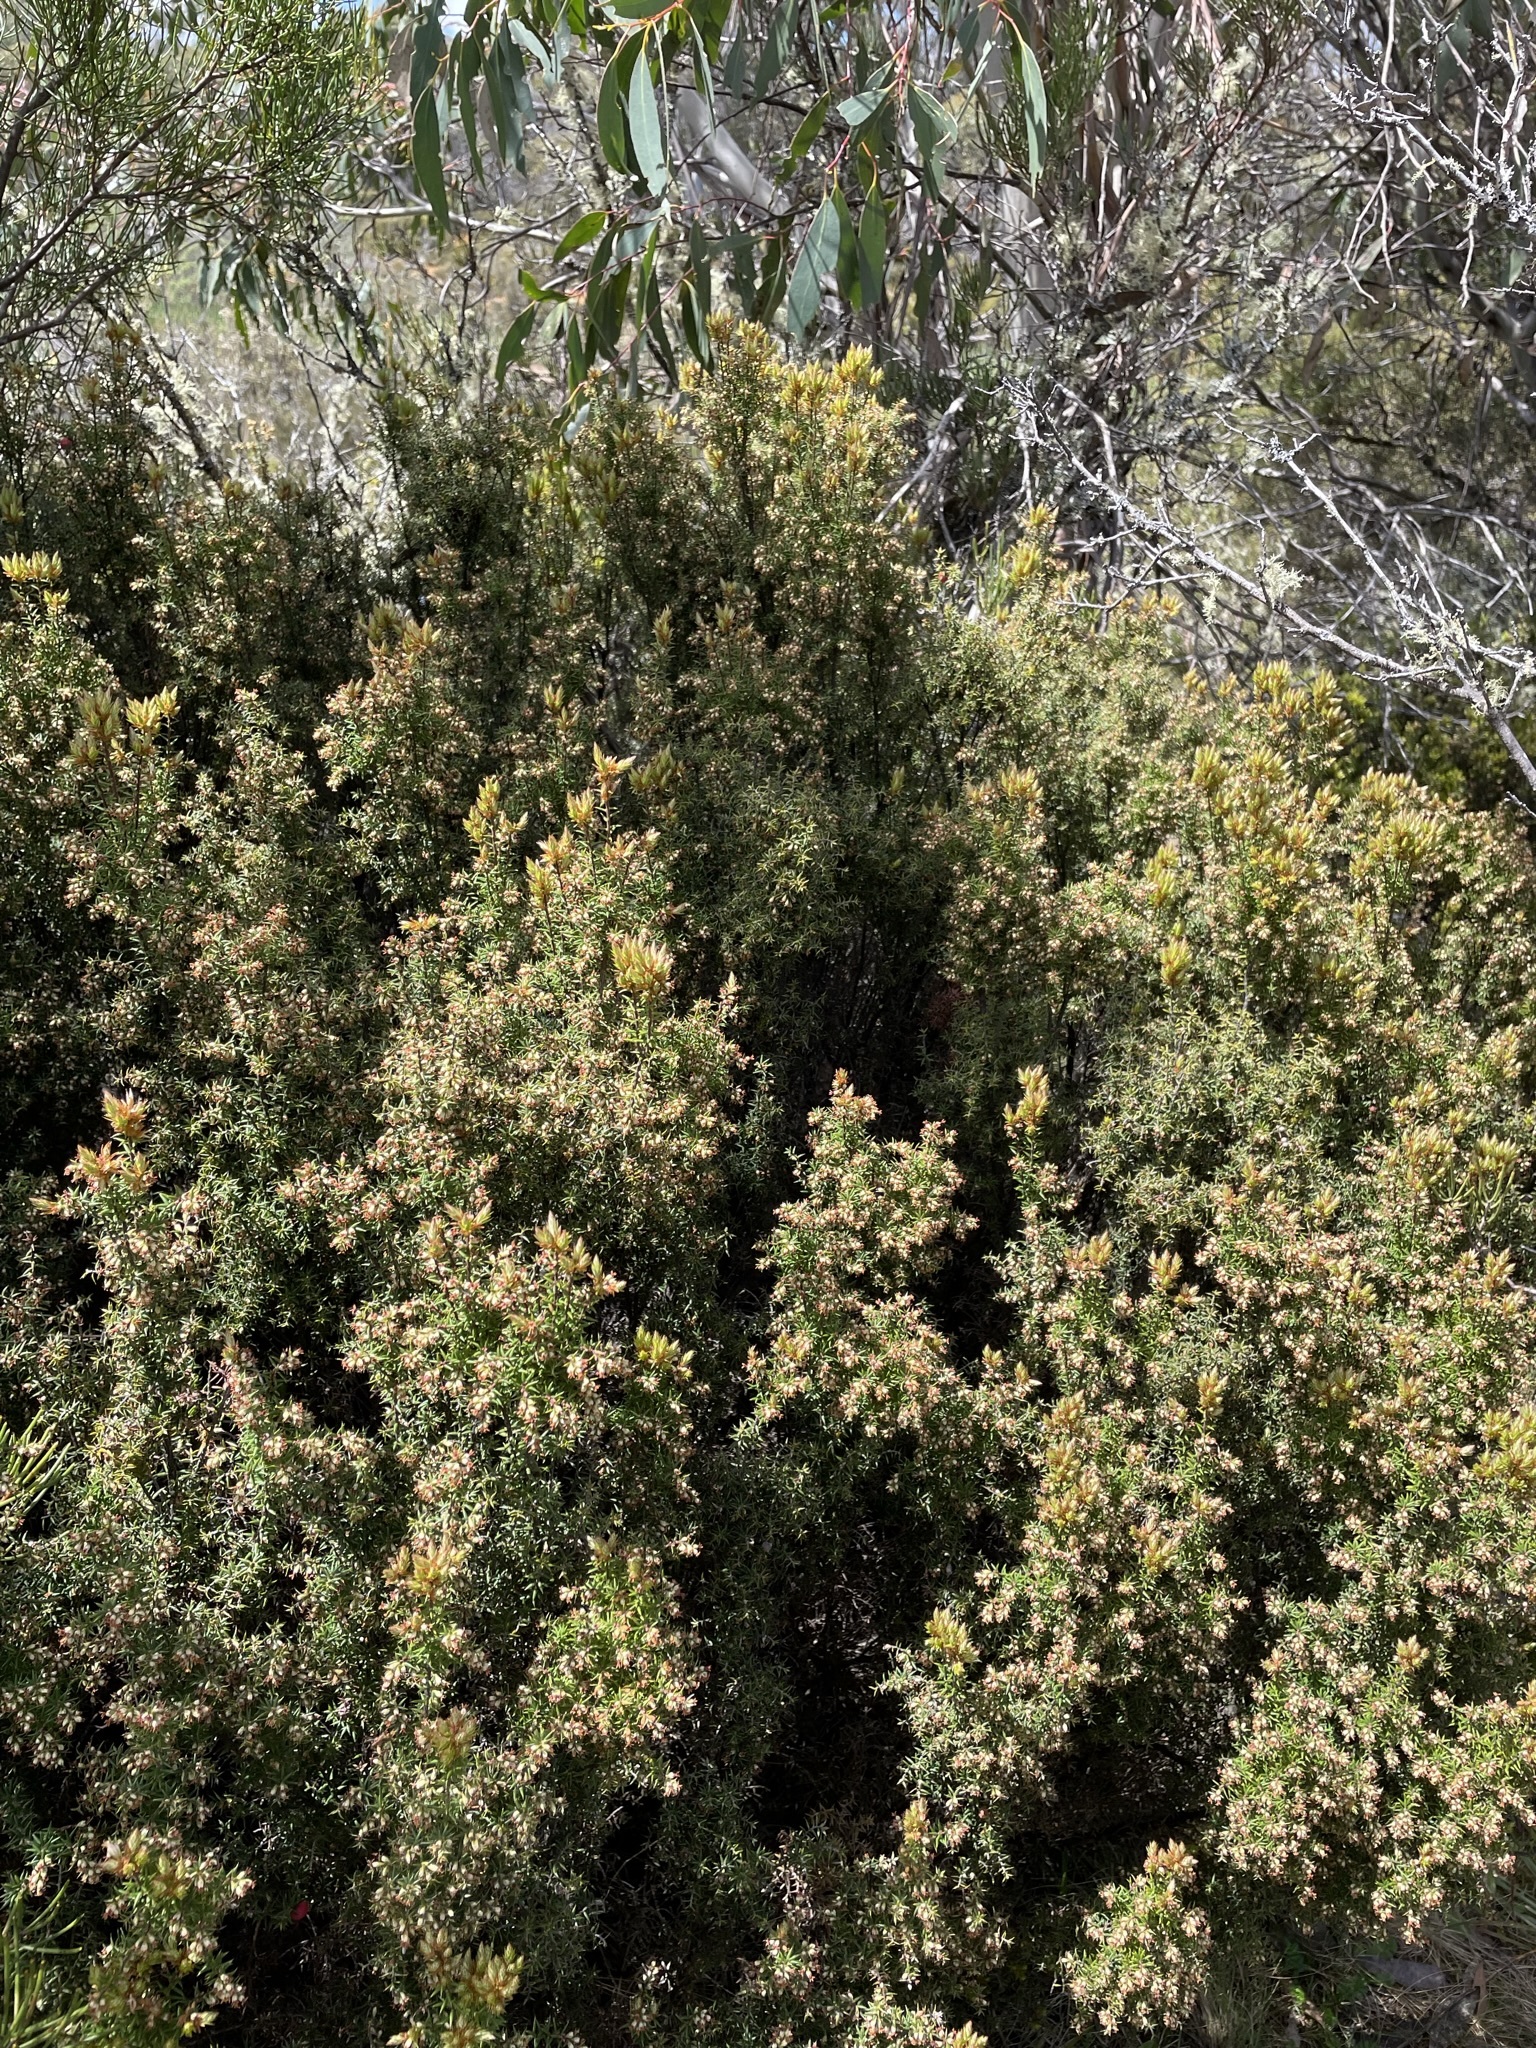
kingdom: Plantae
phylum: Tracheophyta
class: Magnoliopsida
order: Ericales
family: Ericaceae
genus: Leptecophylla
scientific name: Leptecophylla parvifolia
